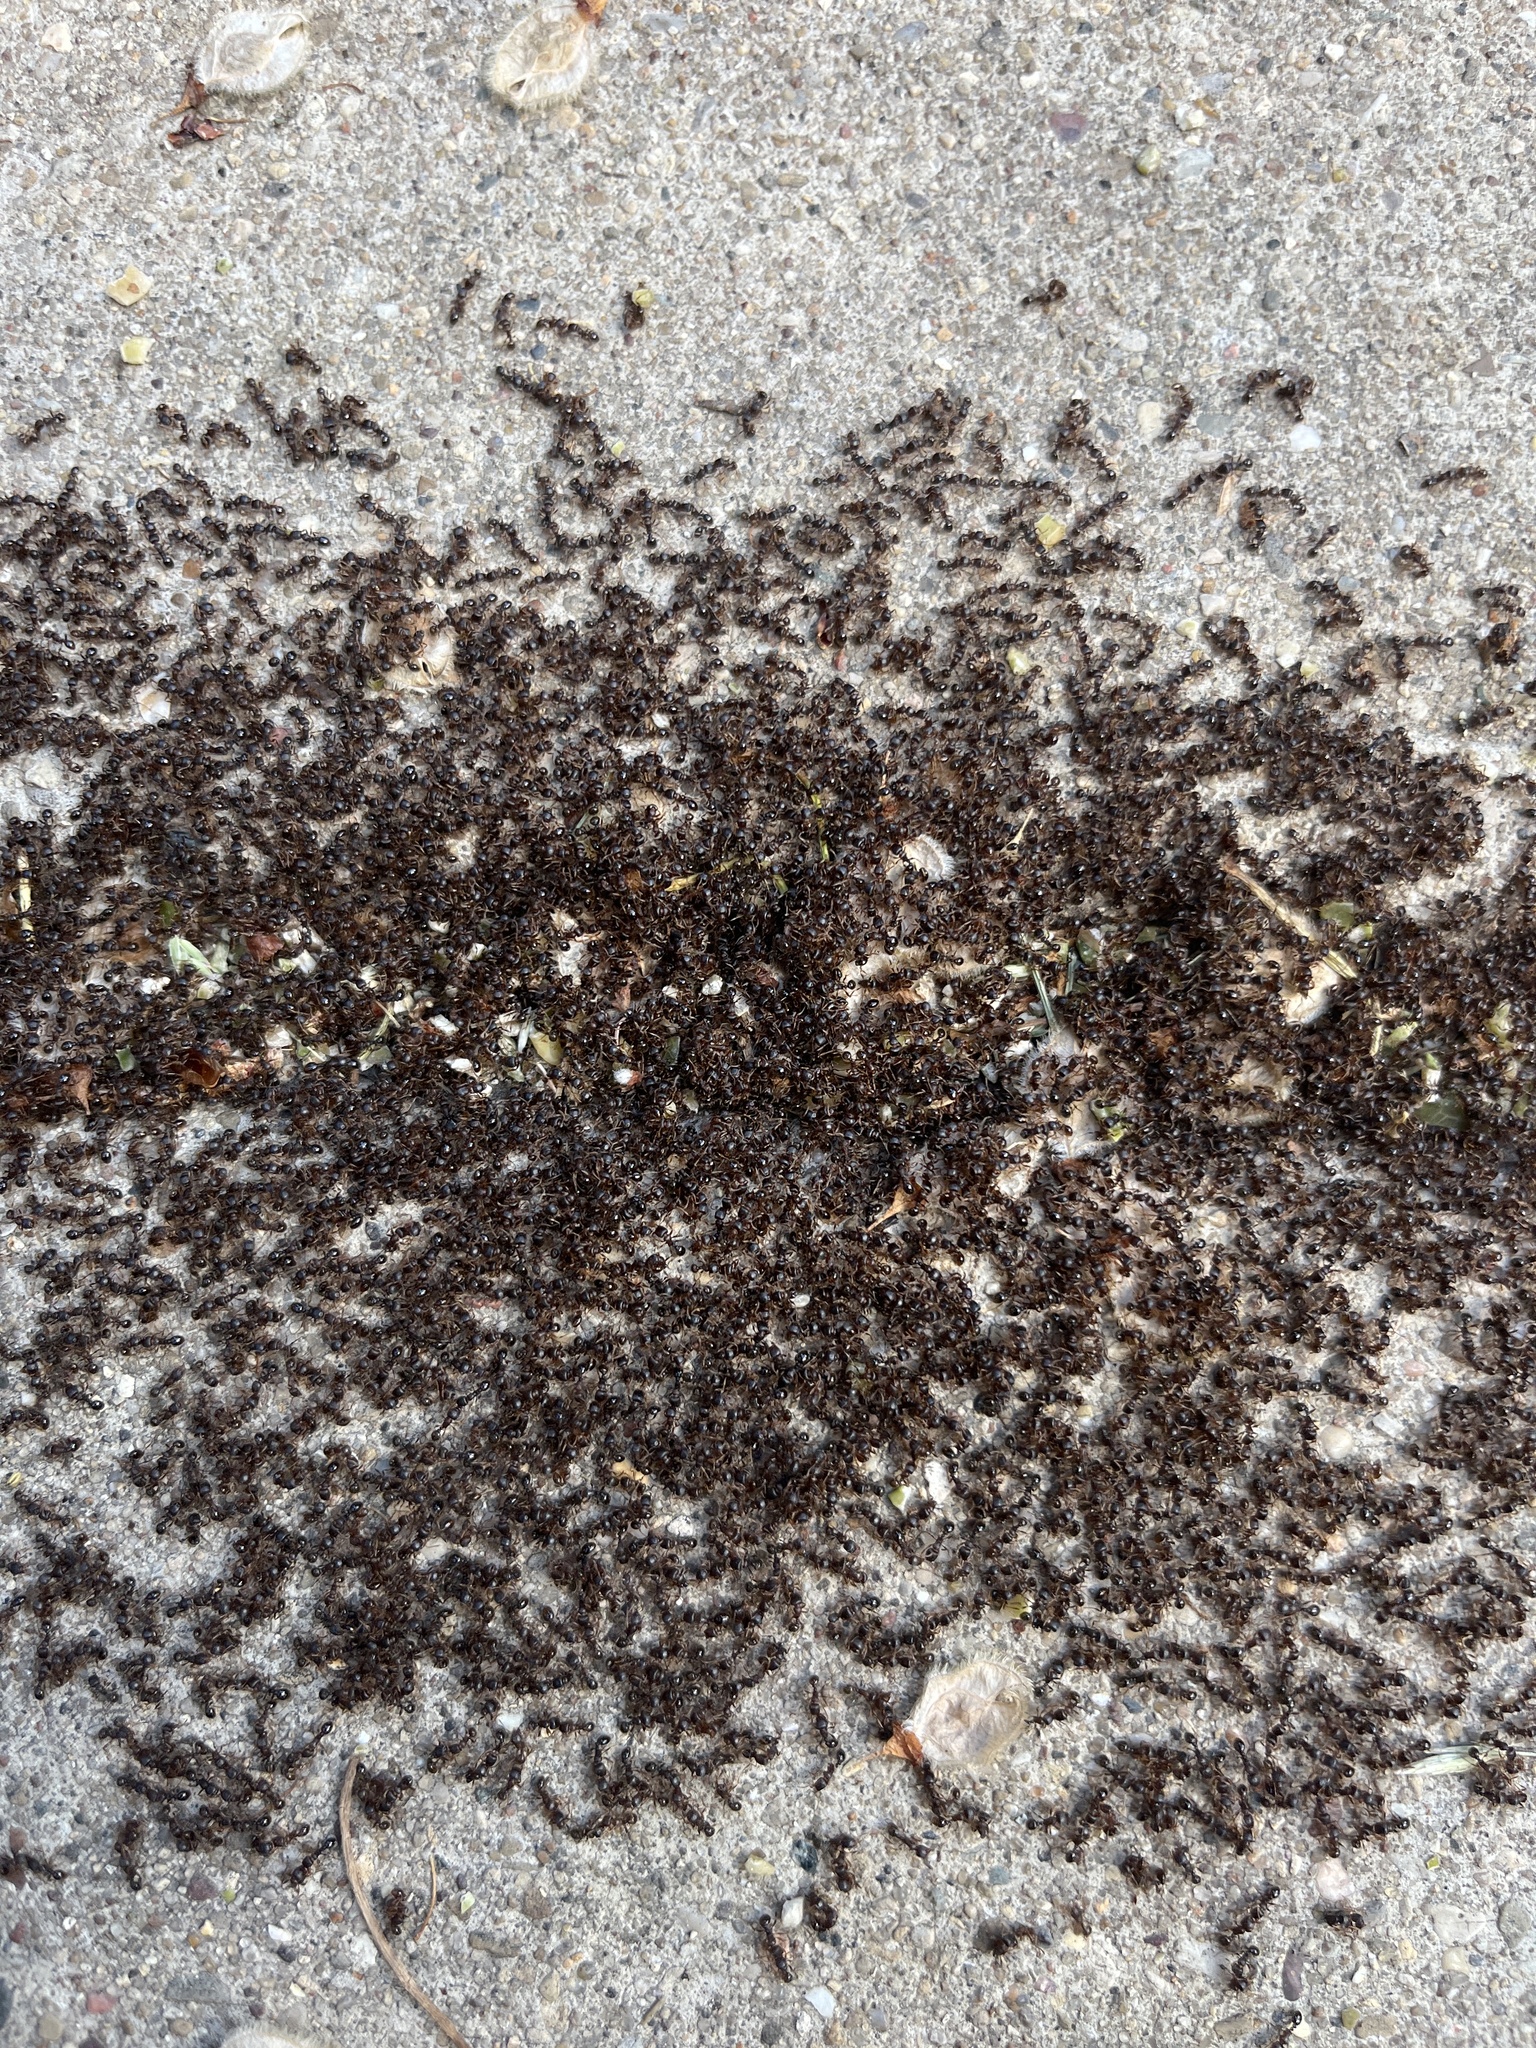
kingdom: Animalia
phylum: Arthropoda
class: Insecta
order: Hymenoptera
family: Formicidae
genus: Tetramorium
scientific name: Tetramorium immigrans
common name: Pavement ant
